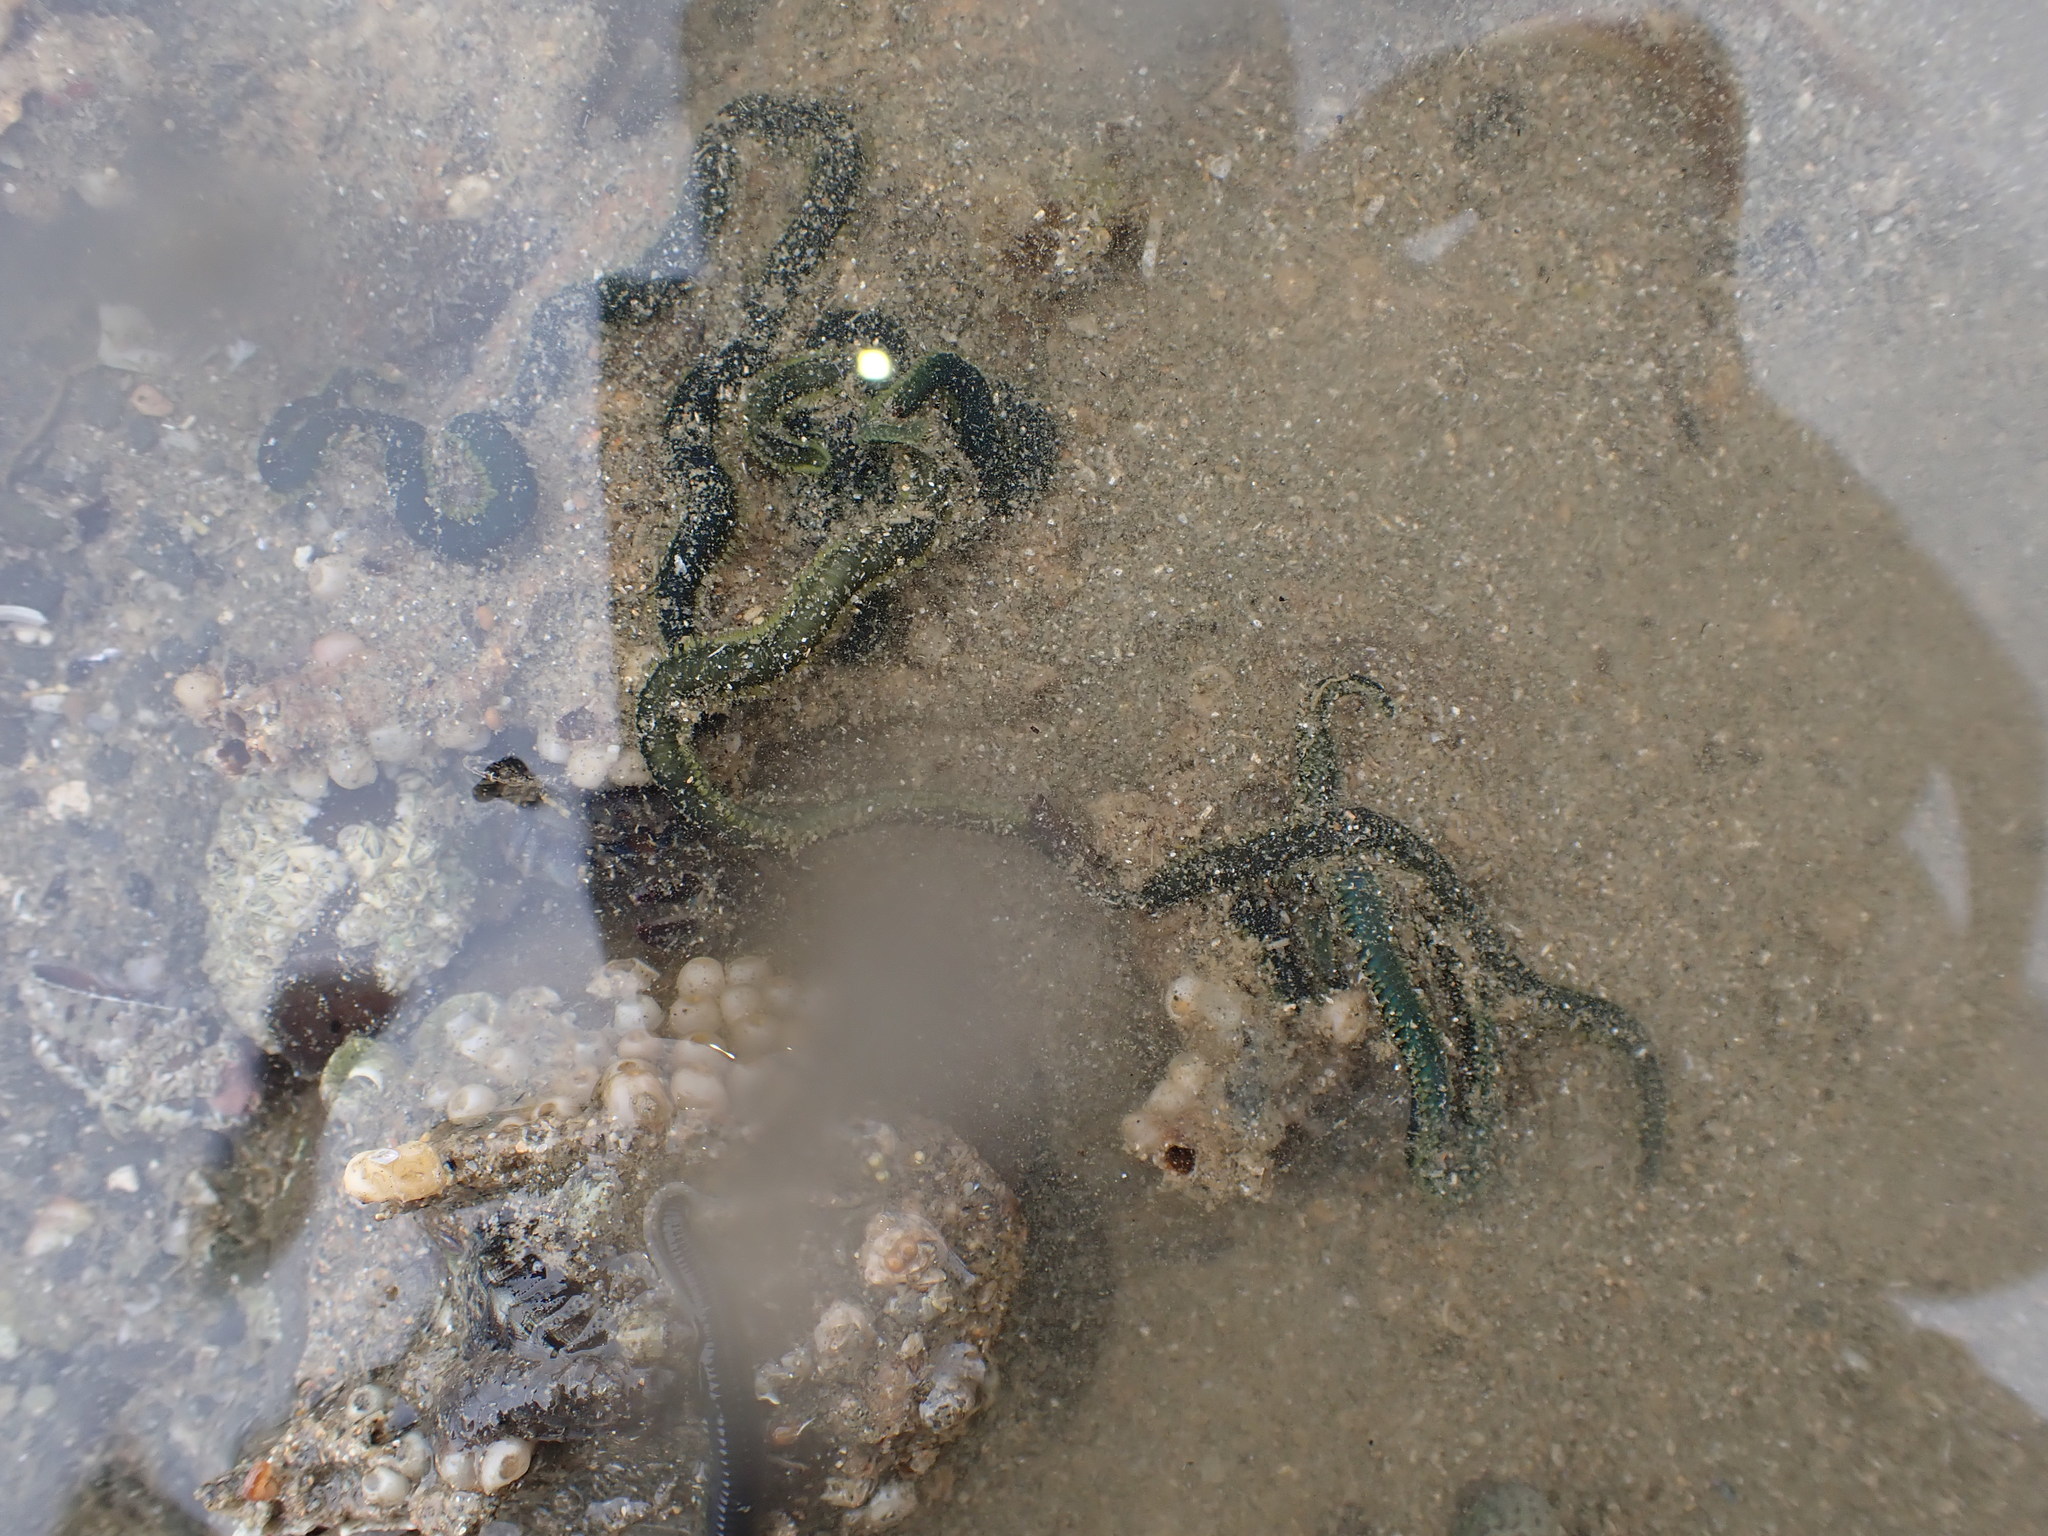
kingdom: Animalia
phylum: Annelida
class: Polychaeta
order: Phyllodocida
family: Phyllodocidae
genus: Eulalia
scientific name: Eulalia microphylla
